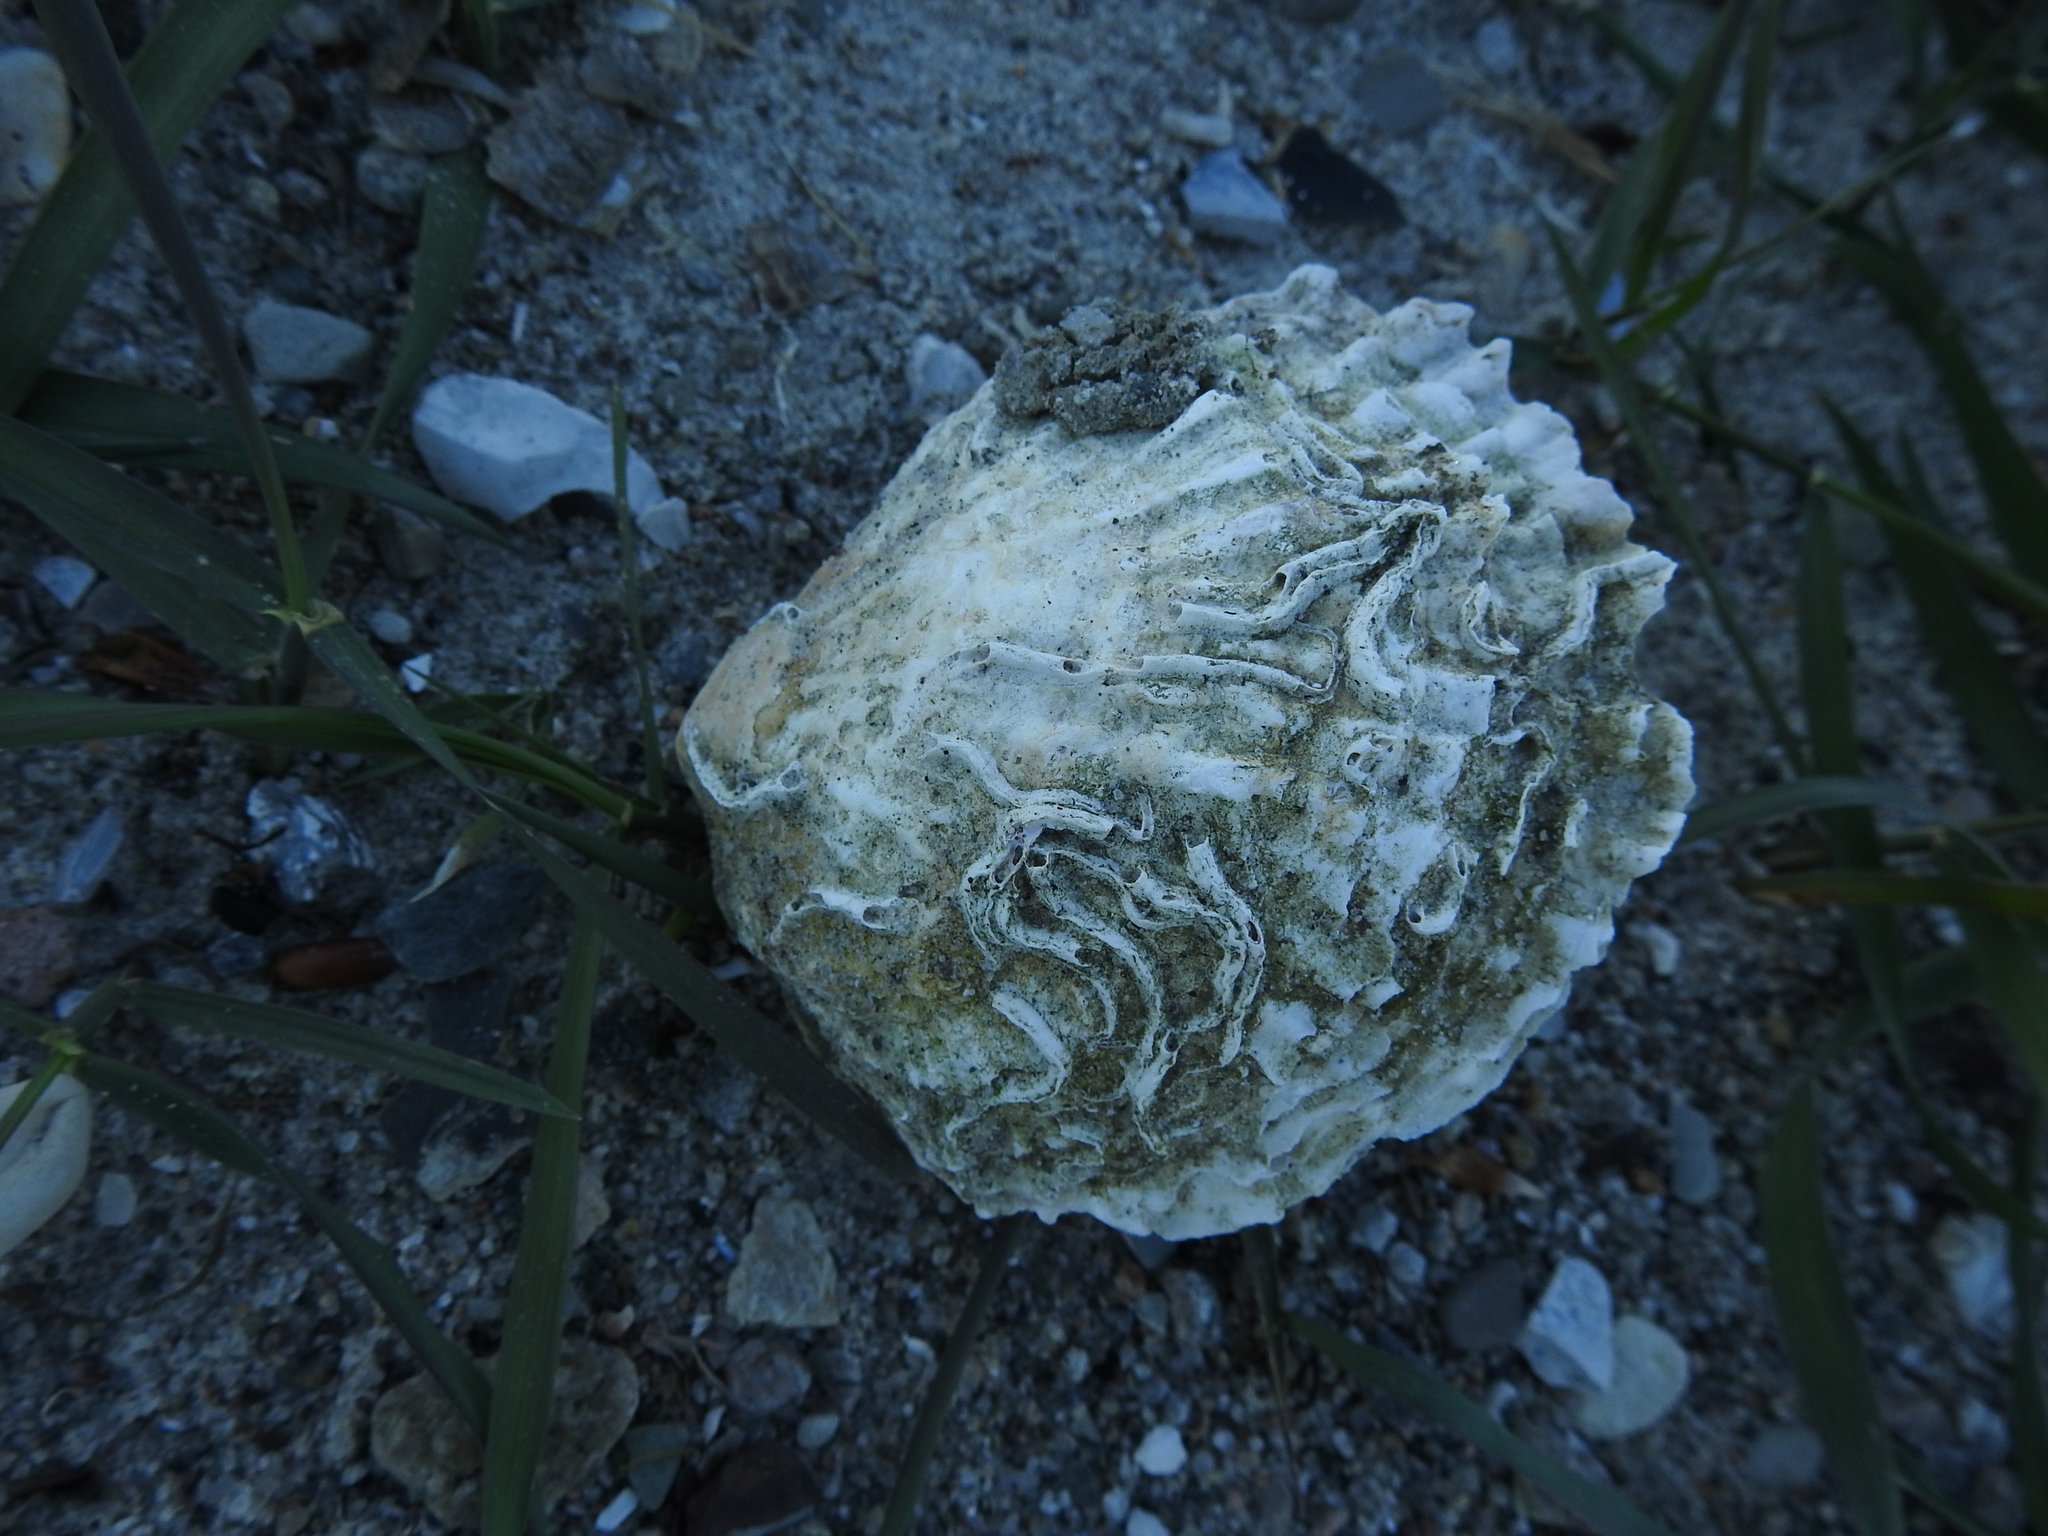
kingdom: Animalia
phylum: Mollusca
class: Bivalvia
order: Ostreida
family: Ostreidae
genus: Ostrea
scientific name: Ostrea edulis
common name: Flat oyster
